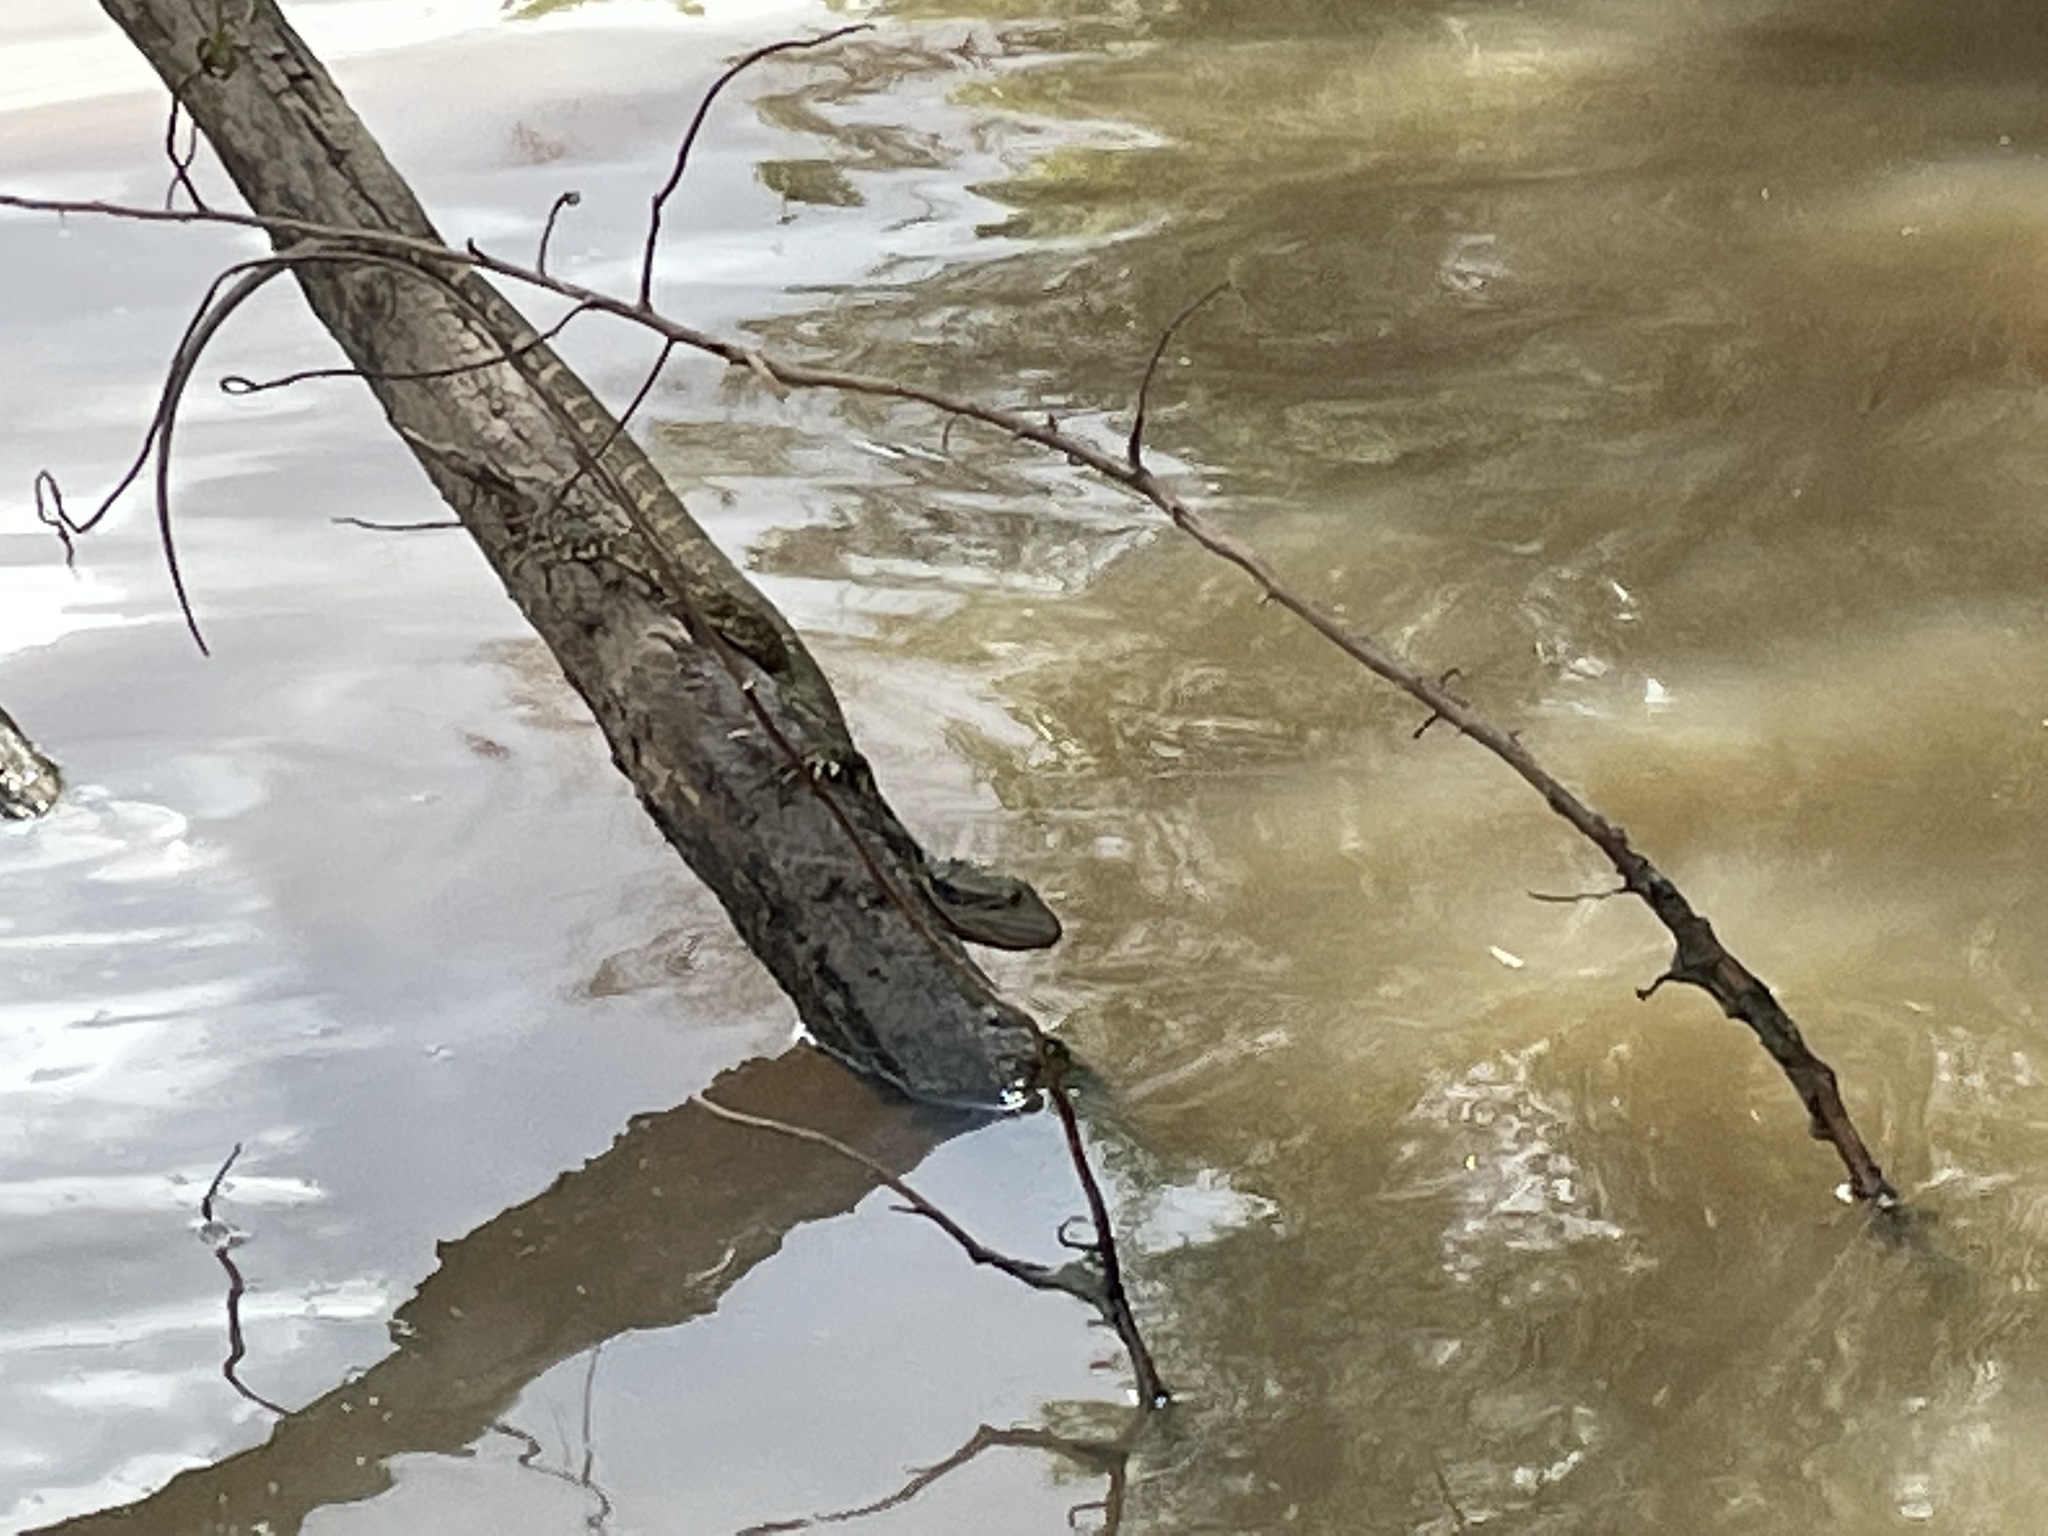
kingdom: Animalia
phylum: Chordata
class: Squamata
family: Agamidae
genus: Intellagama
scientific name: Intellagama lesueurii
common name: Eastern water dragon
